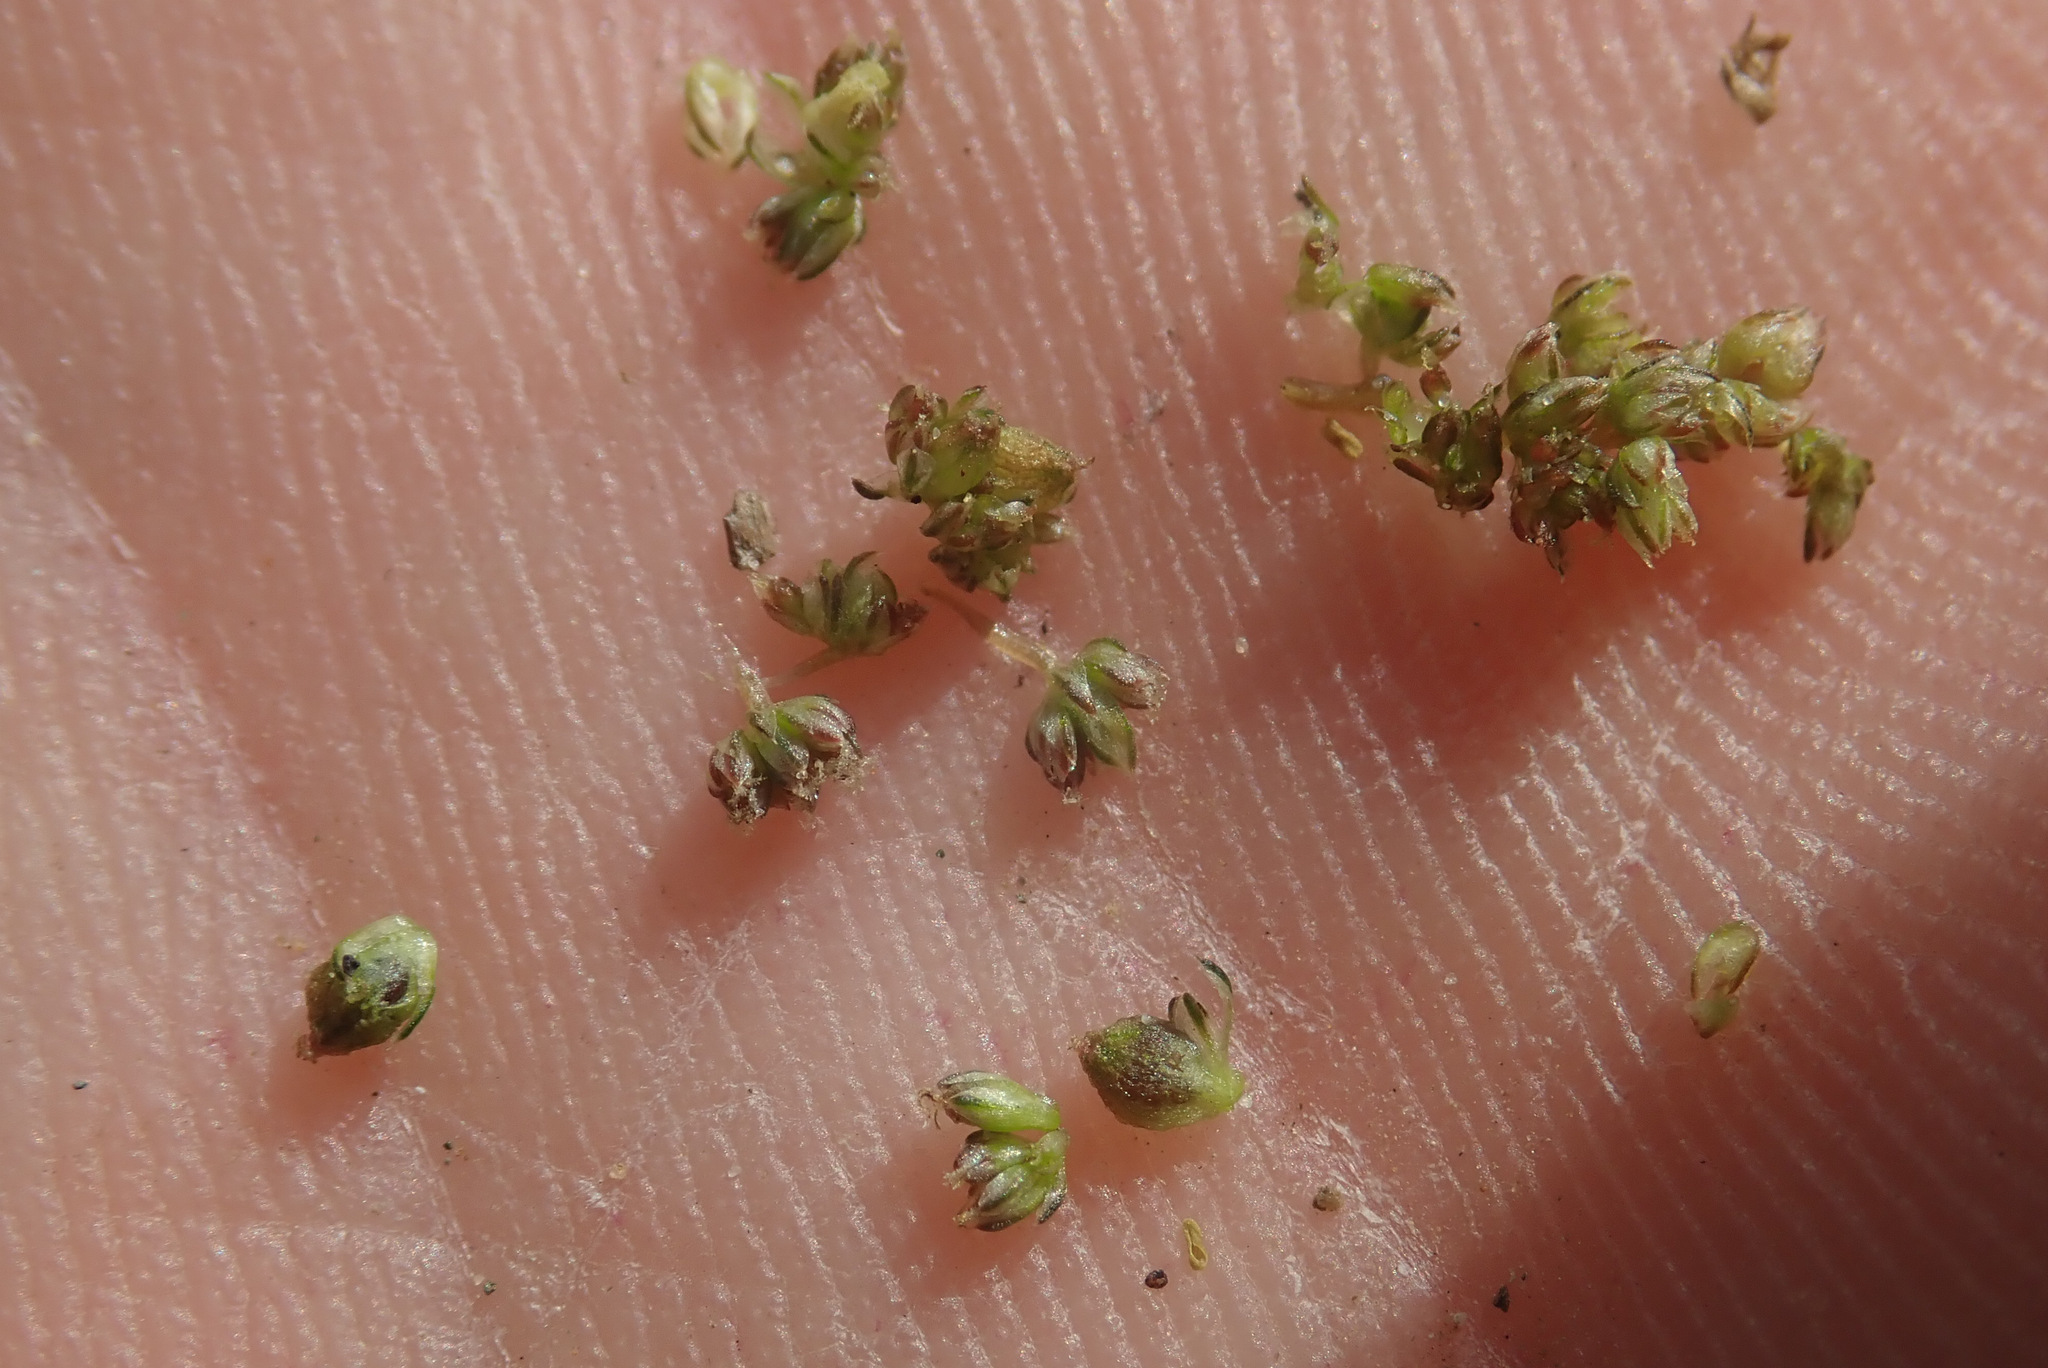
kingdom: Plantae
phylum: Tracheophyta
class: Magnoliopsida
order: Caryophyllales
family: Amaranthaceae
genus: Amaranthus
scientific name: Amaranthus viridis
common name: Slender amaranth
